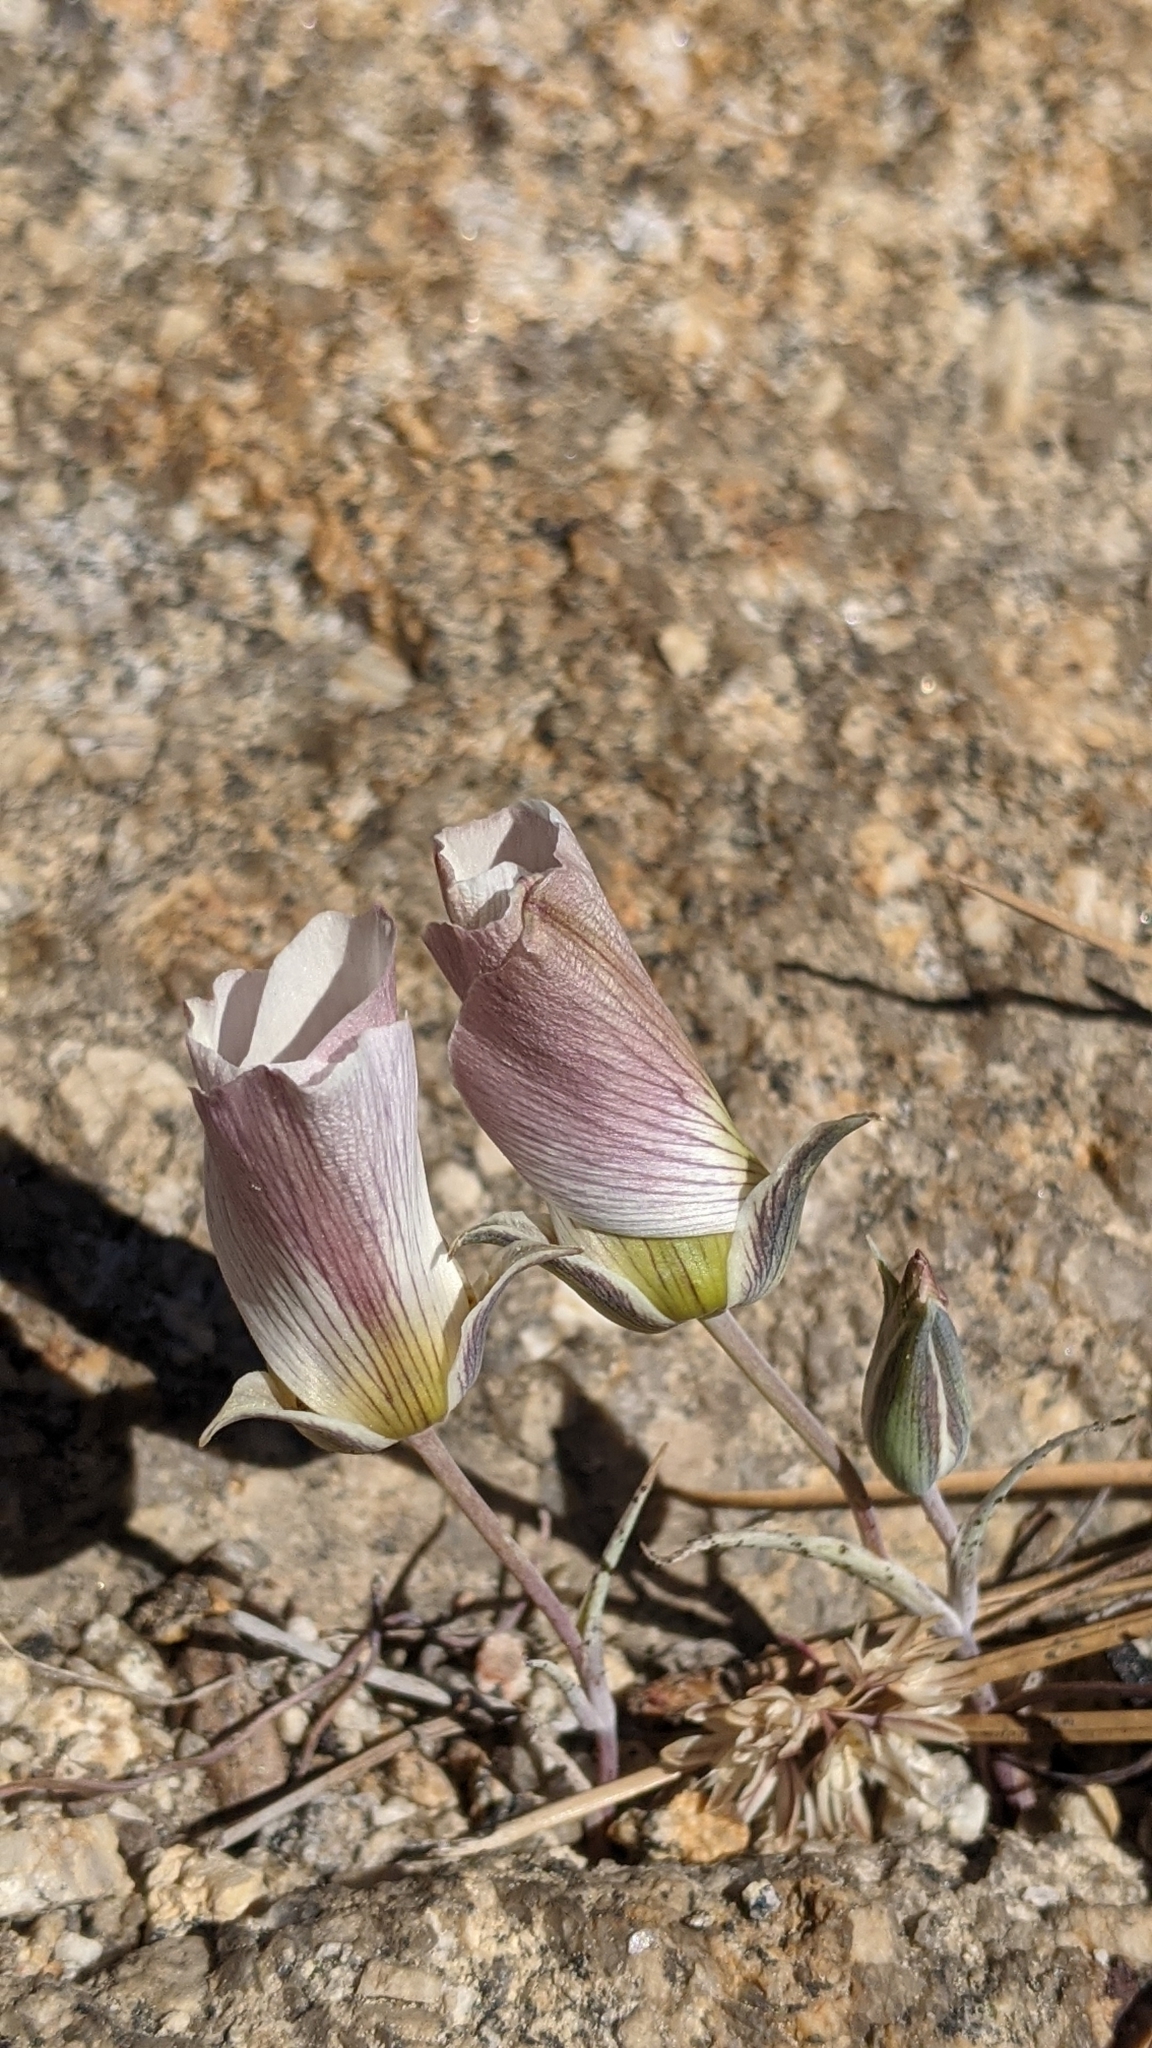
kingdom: Plantae
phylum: Tracheophyta
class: Liliopsida
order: Liliales
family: Liliaceae
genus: Calochortus
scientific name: Calochortus leichtlinii
